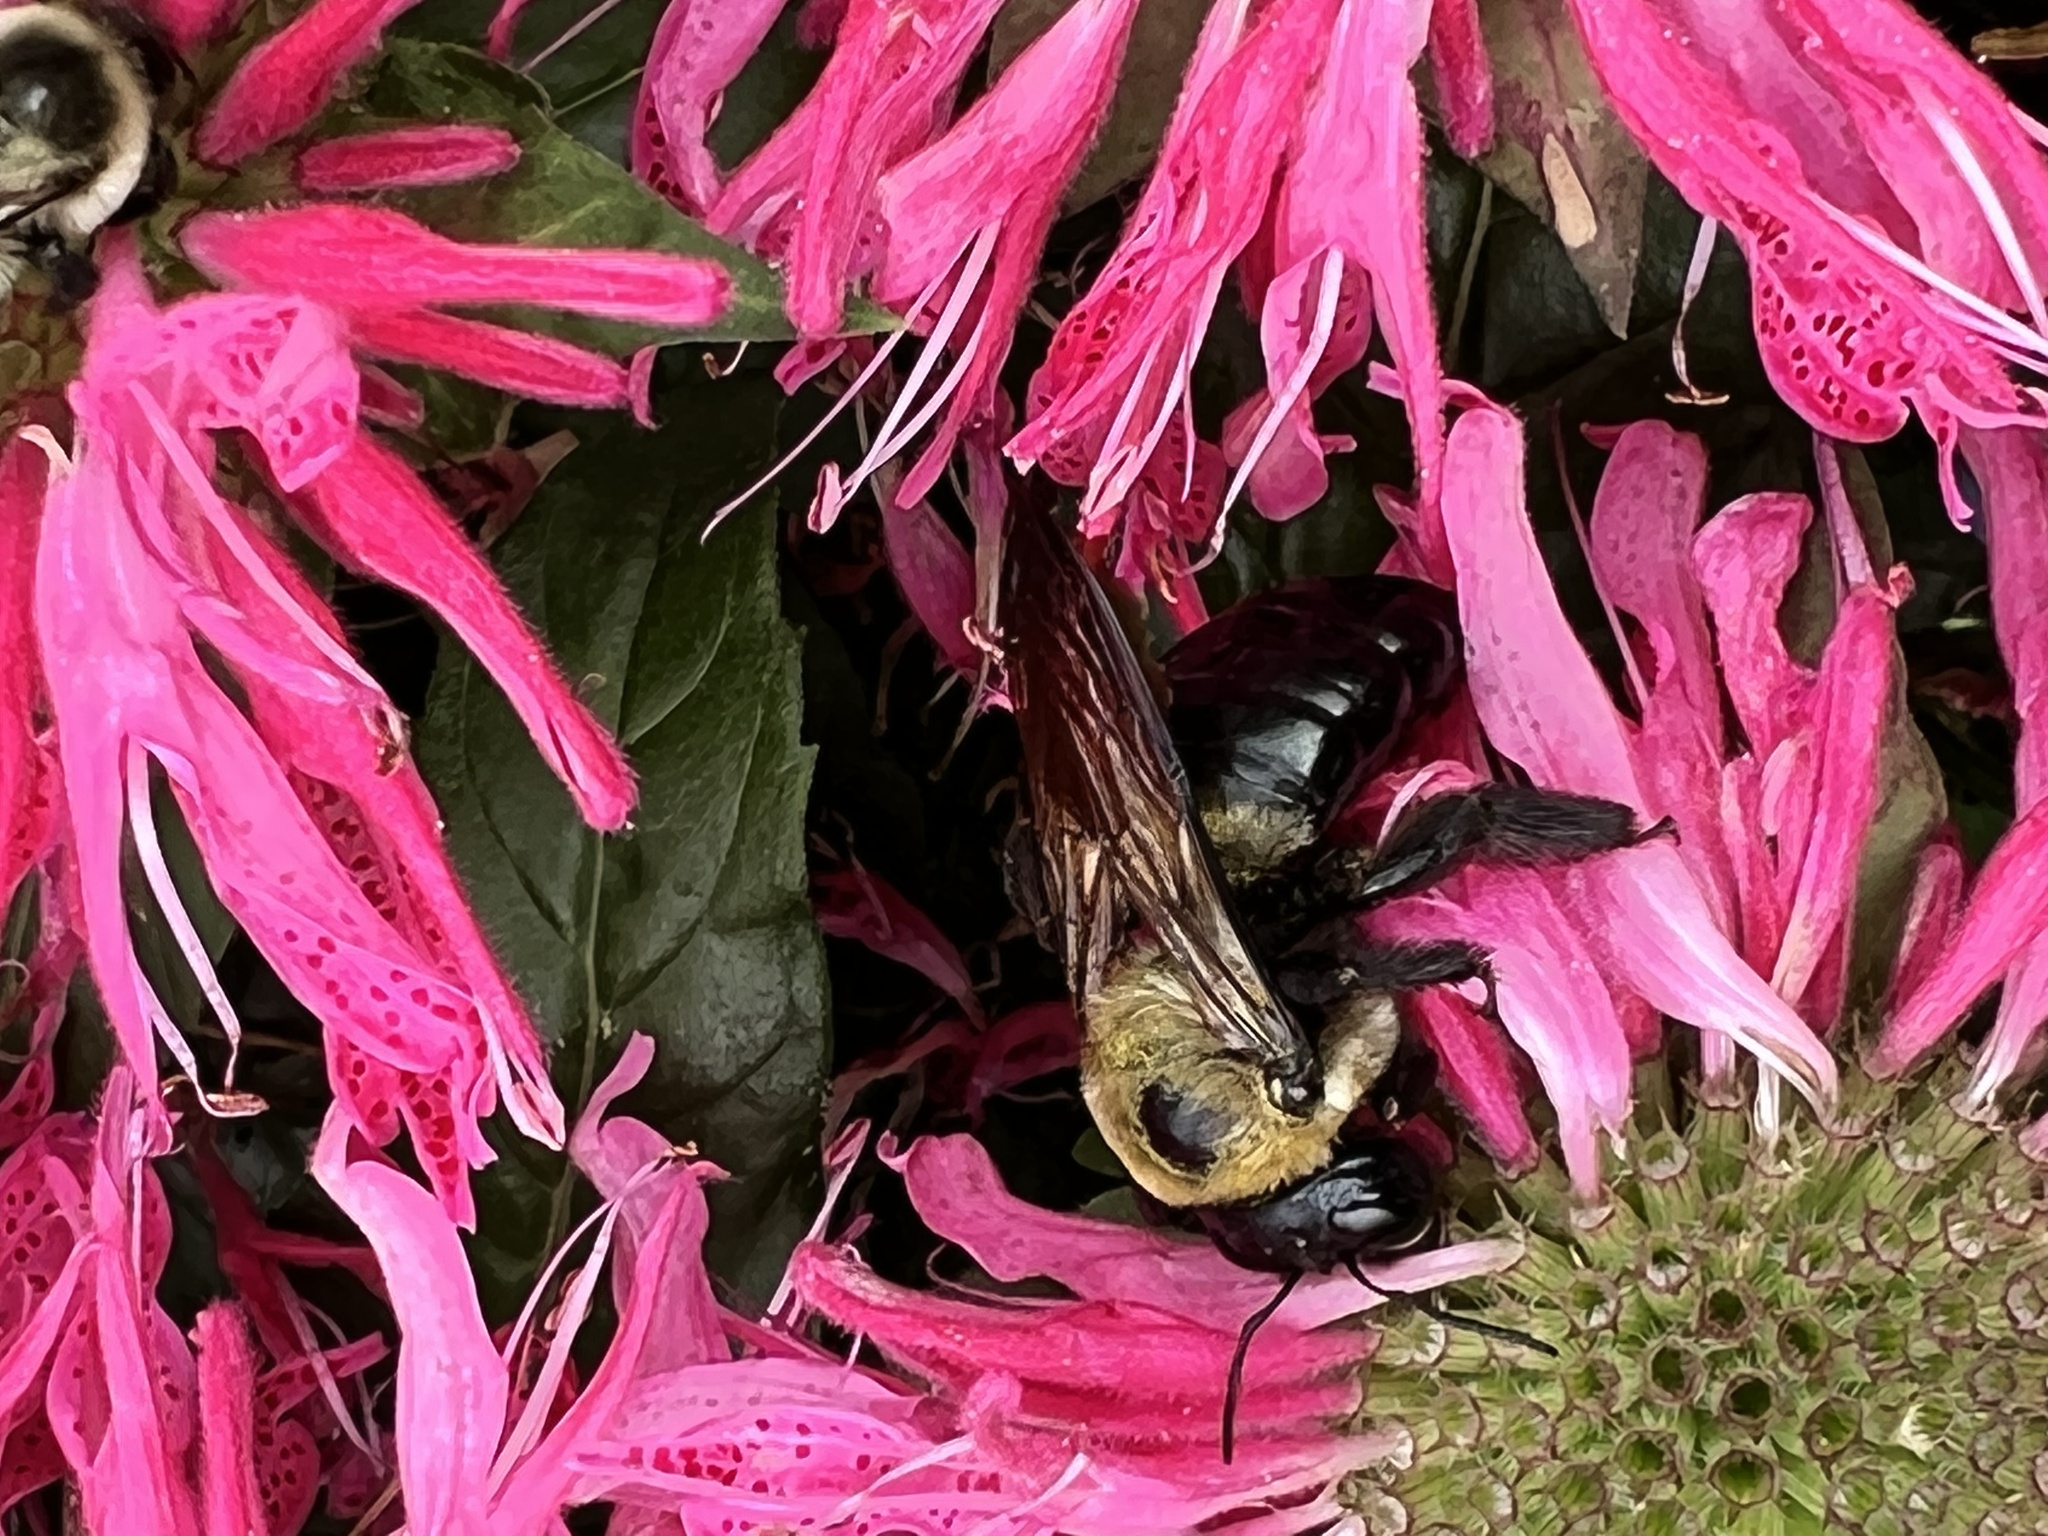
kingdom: Animalia
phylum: Arthropoda
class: Insecta
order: Hymenoptera
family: Apidae
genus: Xylocopa
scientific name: Xylocopa virginica
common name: Carpenter bee
